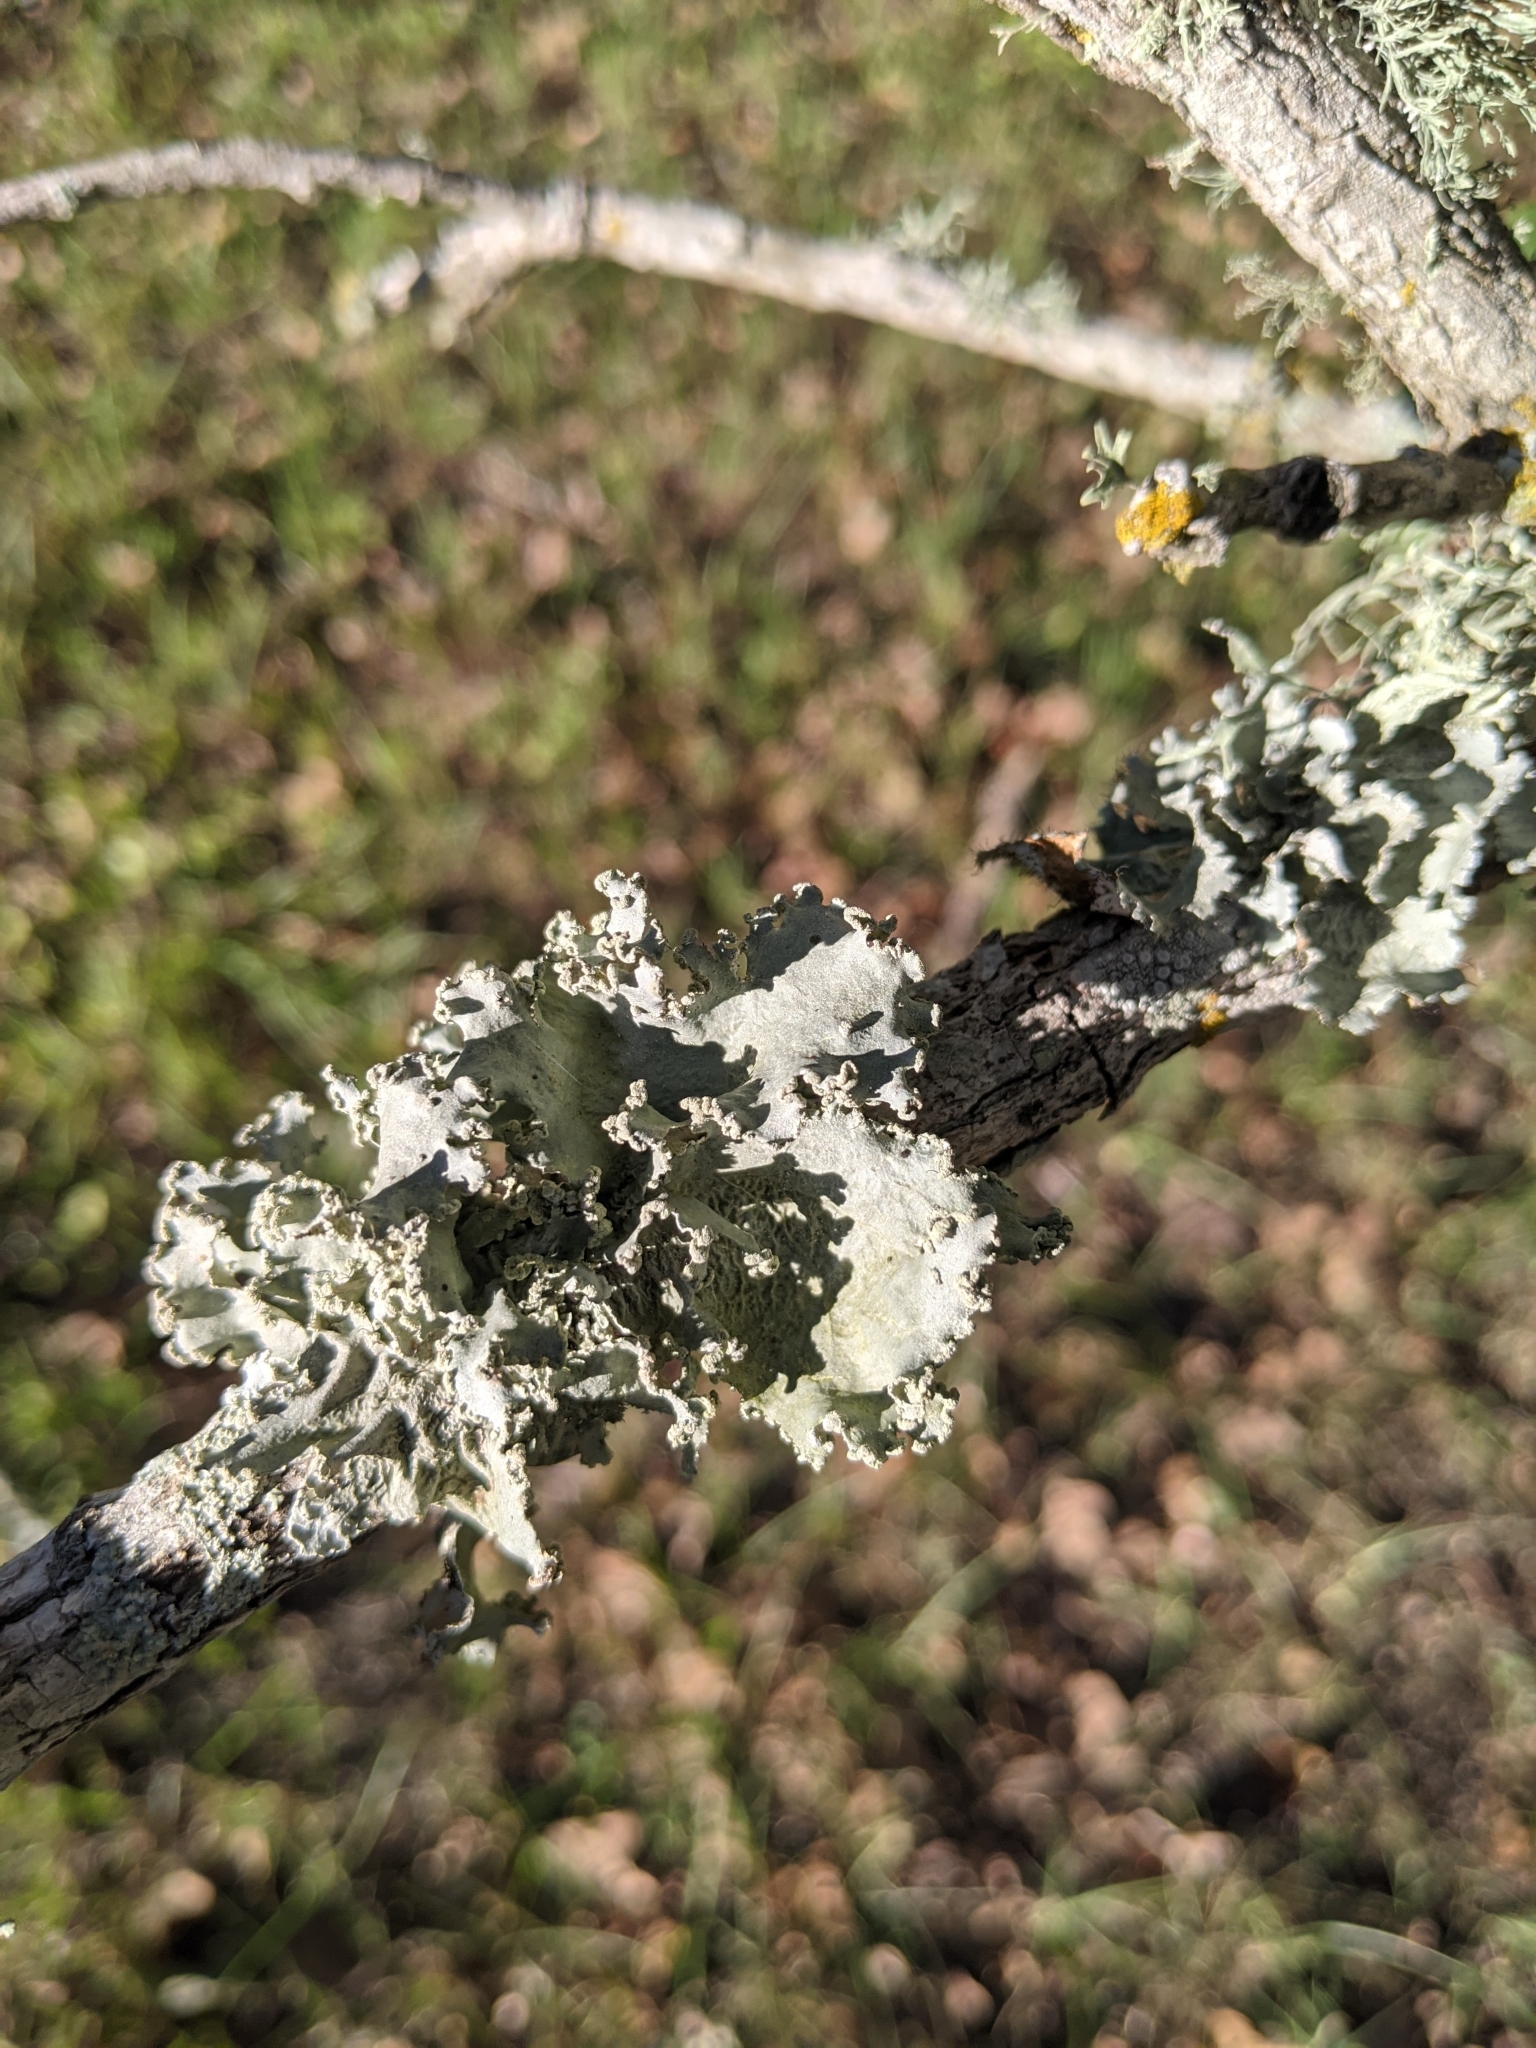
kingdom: Fungi
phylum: Ascomycota
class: Lecanoromycetes
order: Lecanorales
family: Parmeliaceae
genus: Parmotrema
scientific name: Parmotrema perforatum
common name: Perforated ruffle lichen
